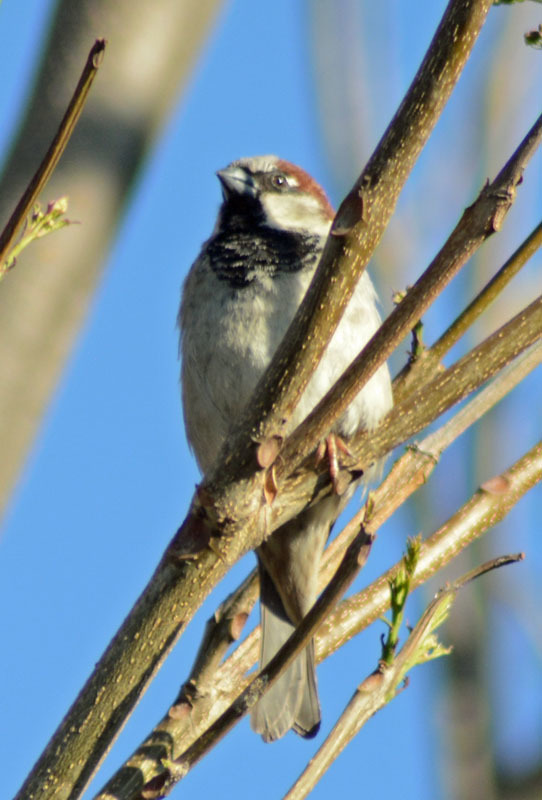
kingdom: Animalia
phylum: Chordata
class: Aves
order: Passeriformes
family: Passeridae
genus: Passer
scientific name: Passer domesticus
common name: House sparrow
